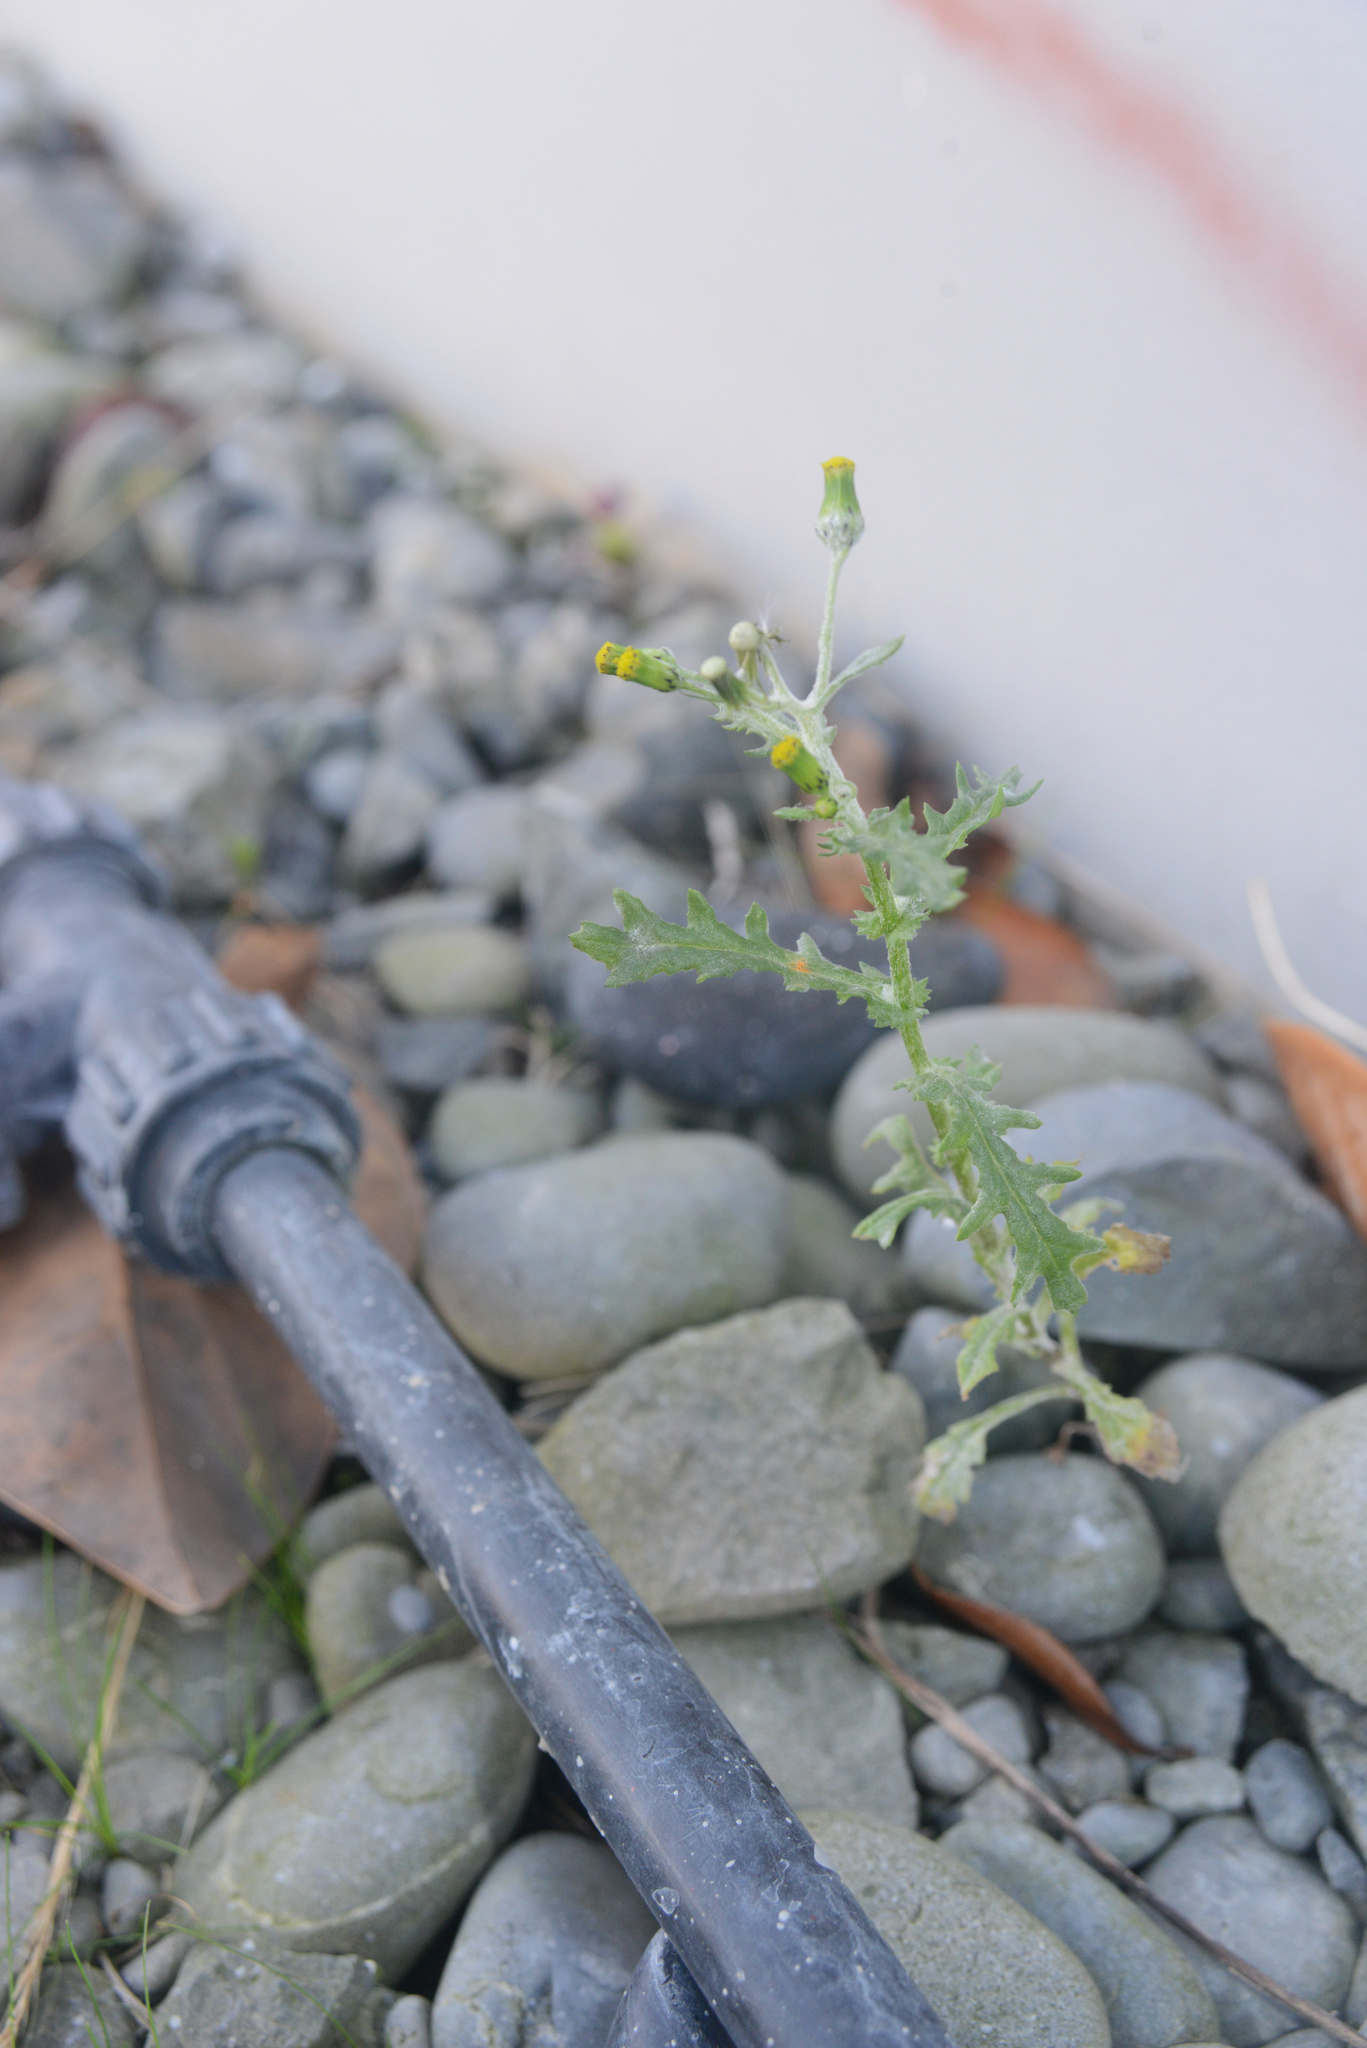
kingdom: Plantae
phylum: Tracheophyta
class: Magnoliopsida
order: Asterales
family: Asteraceae
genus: Senecio
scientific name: Senecio vulgaris
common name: Old-man-in-the-spring
